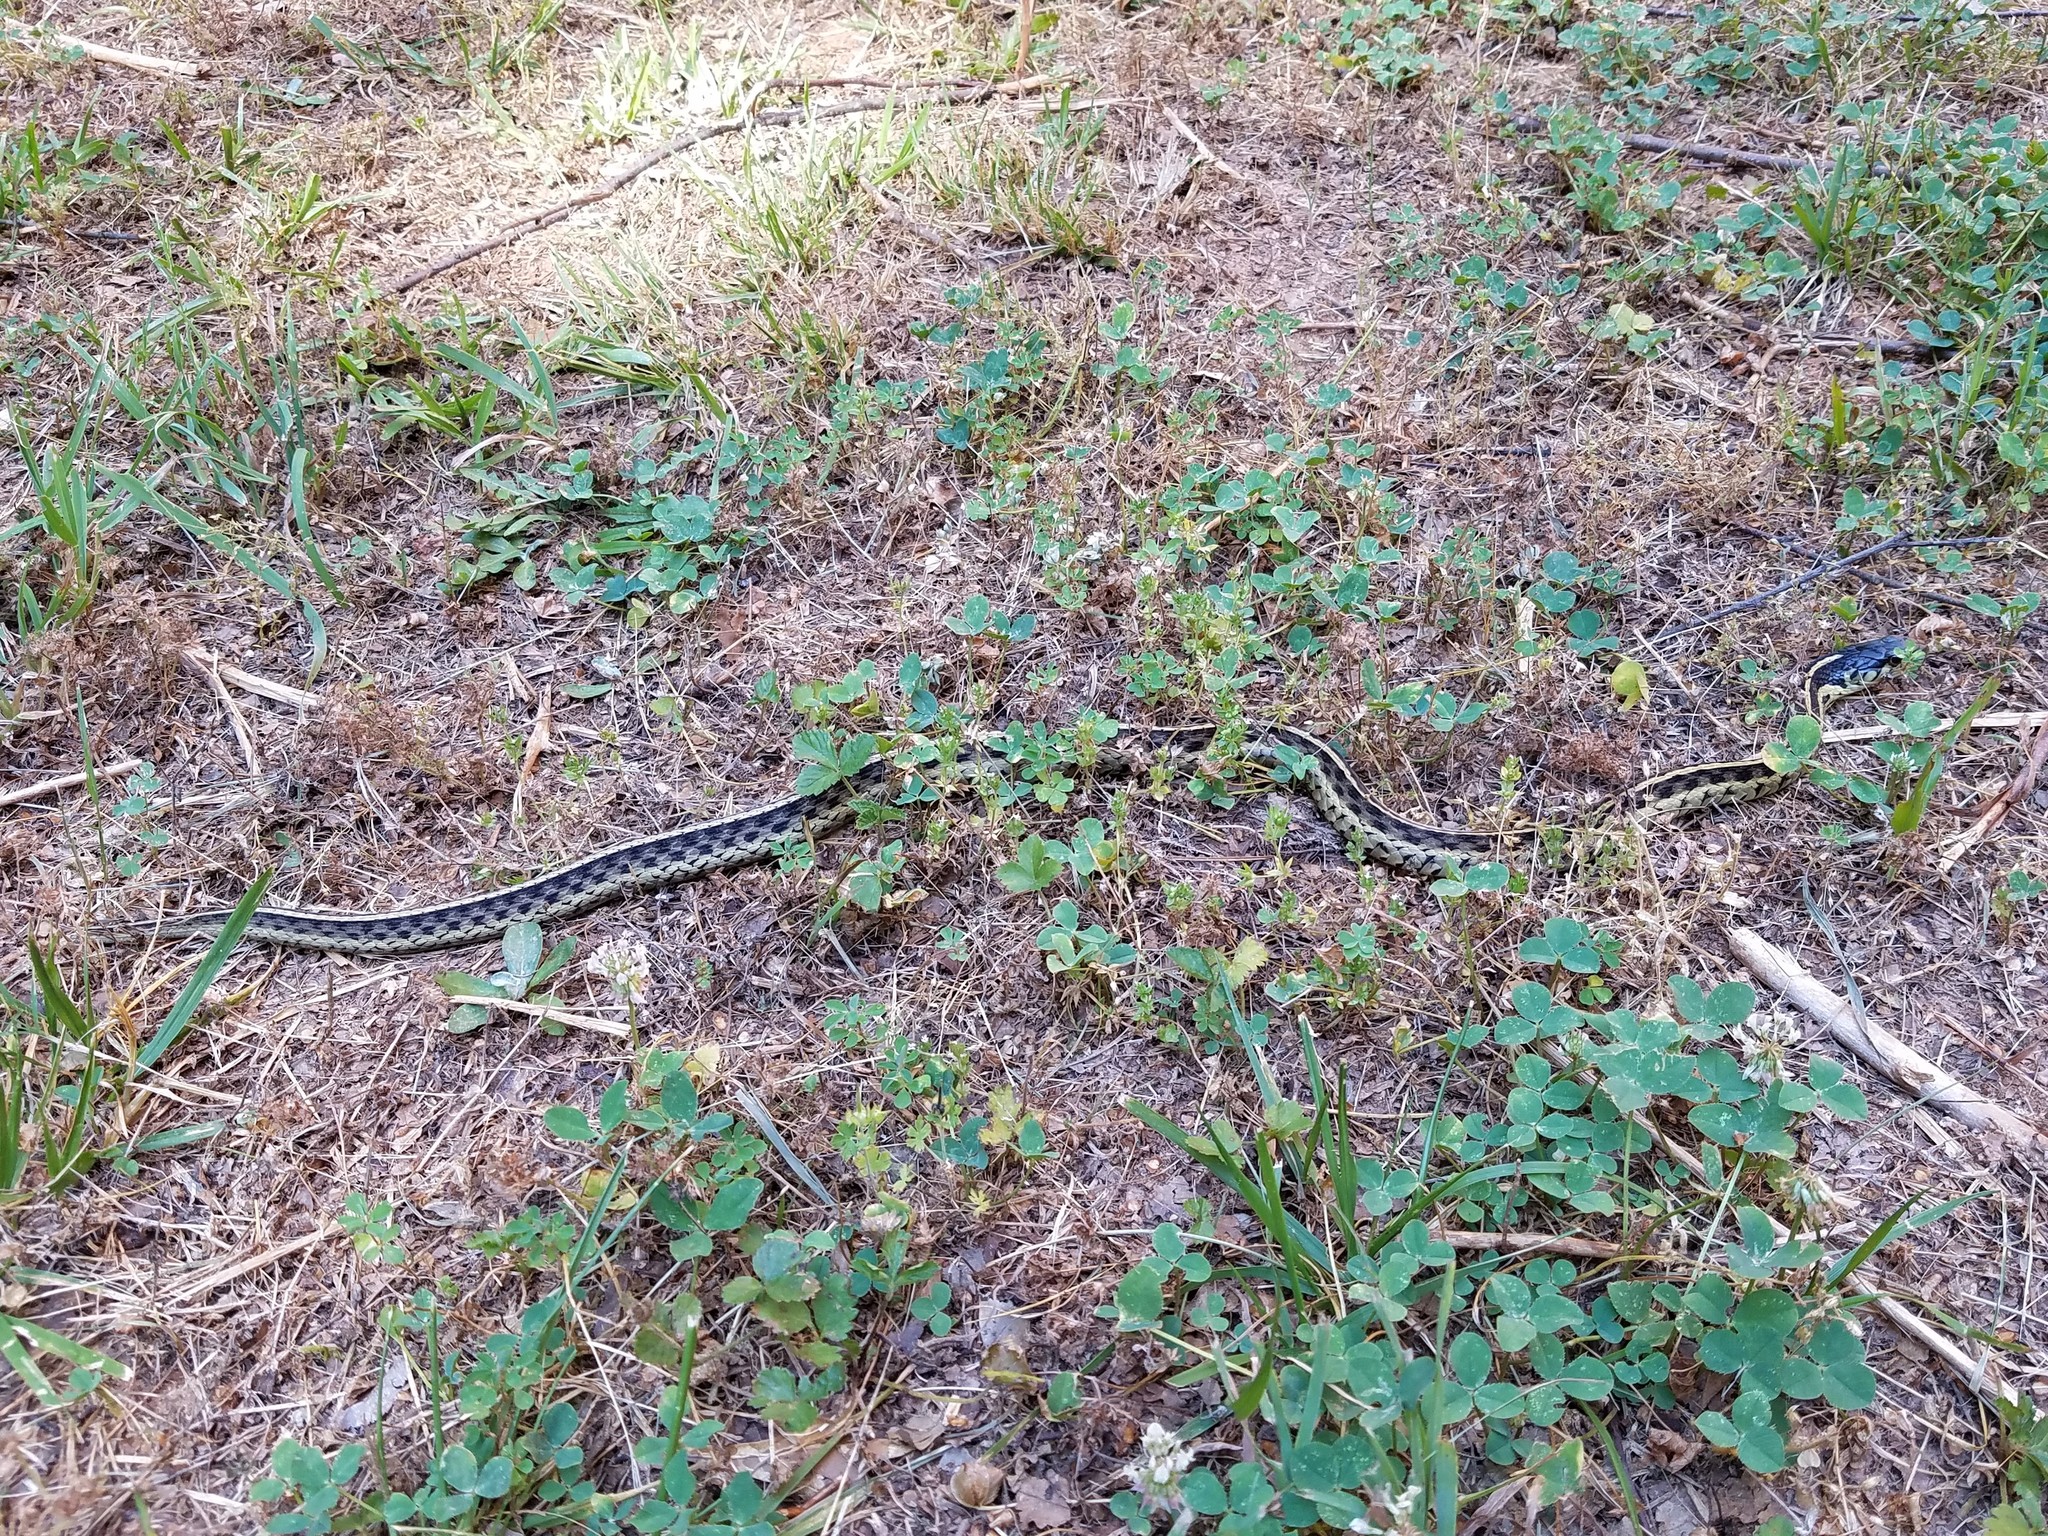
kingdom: Animalia
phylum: Chordata
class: Squamata
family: Colubridae
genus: Thamnophis
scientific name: Thamnophis sirtalis
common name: Common garter snake
